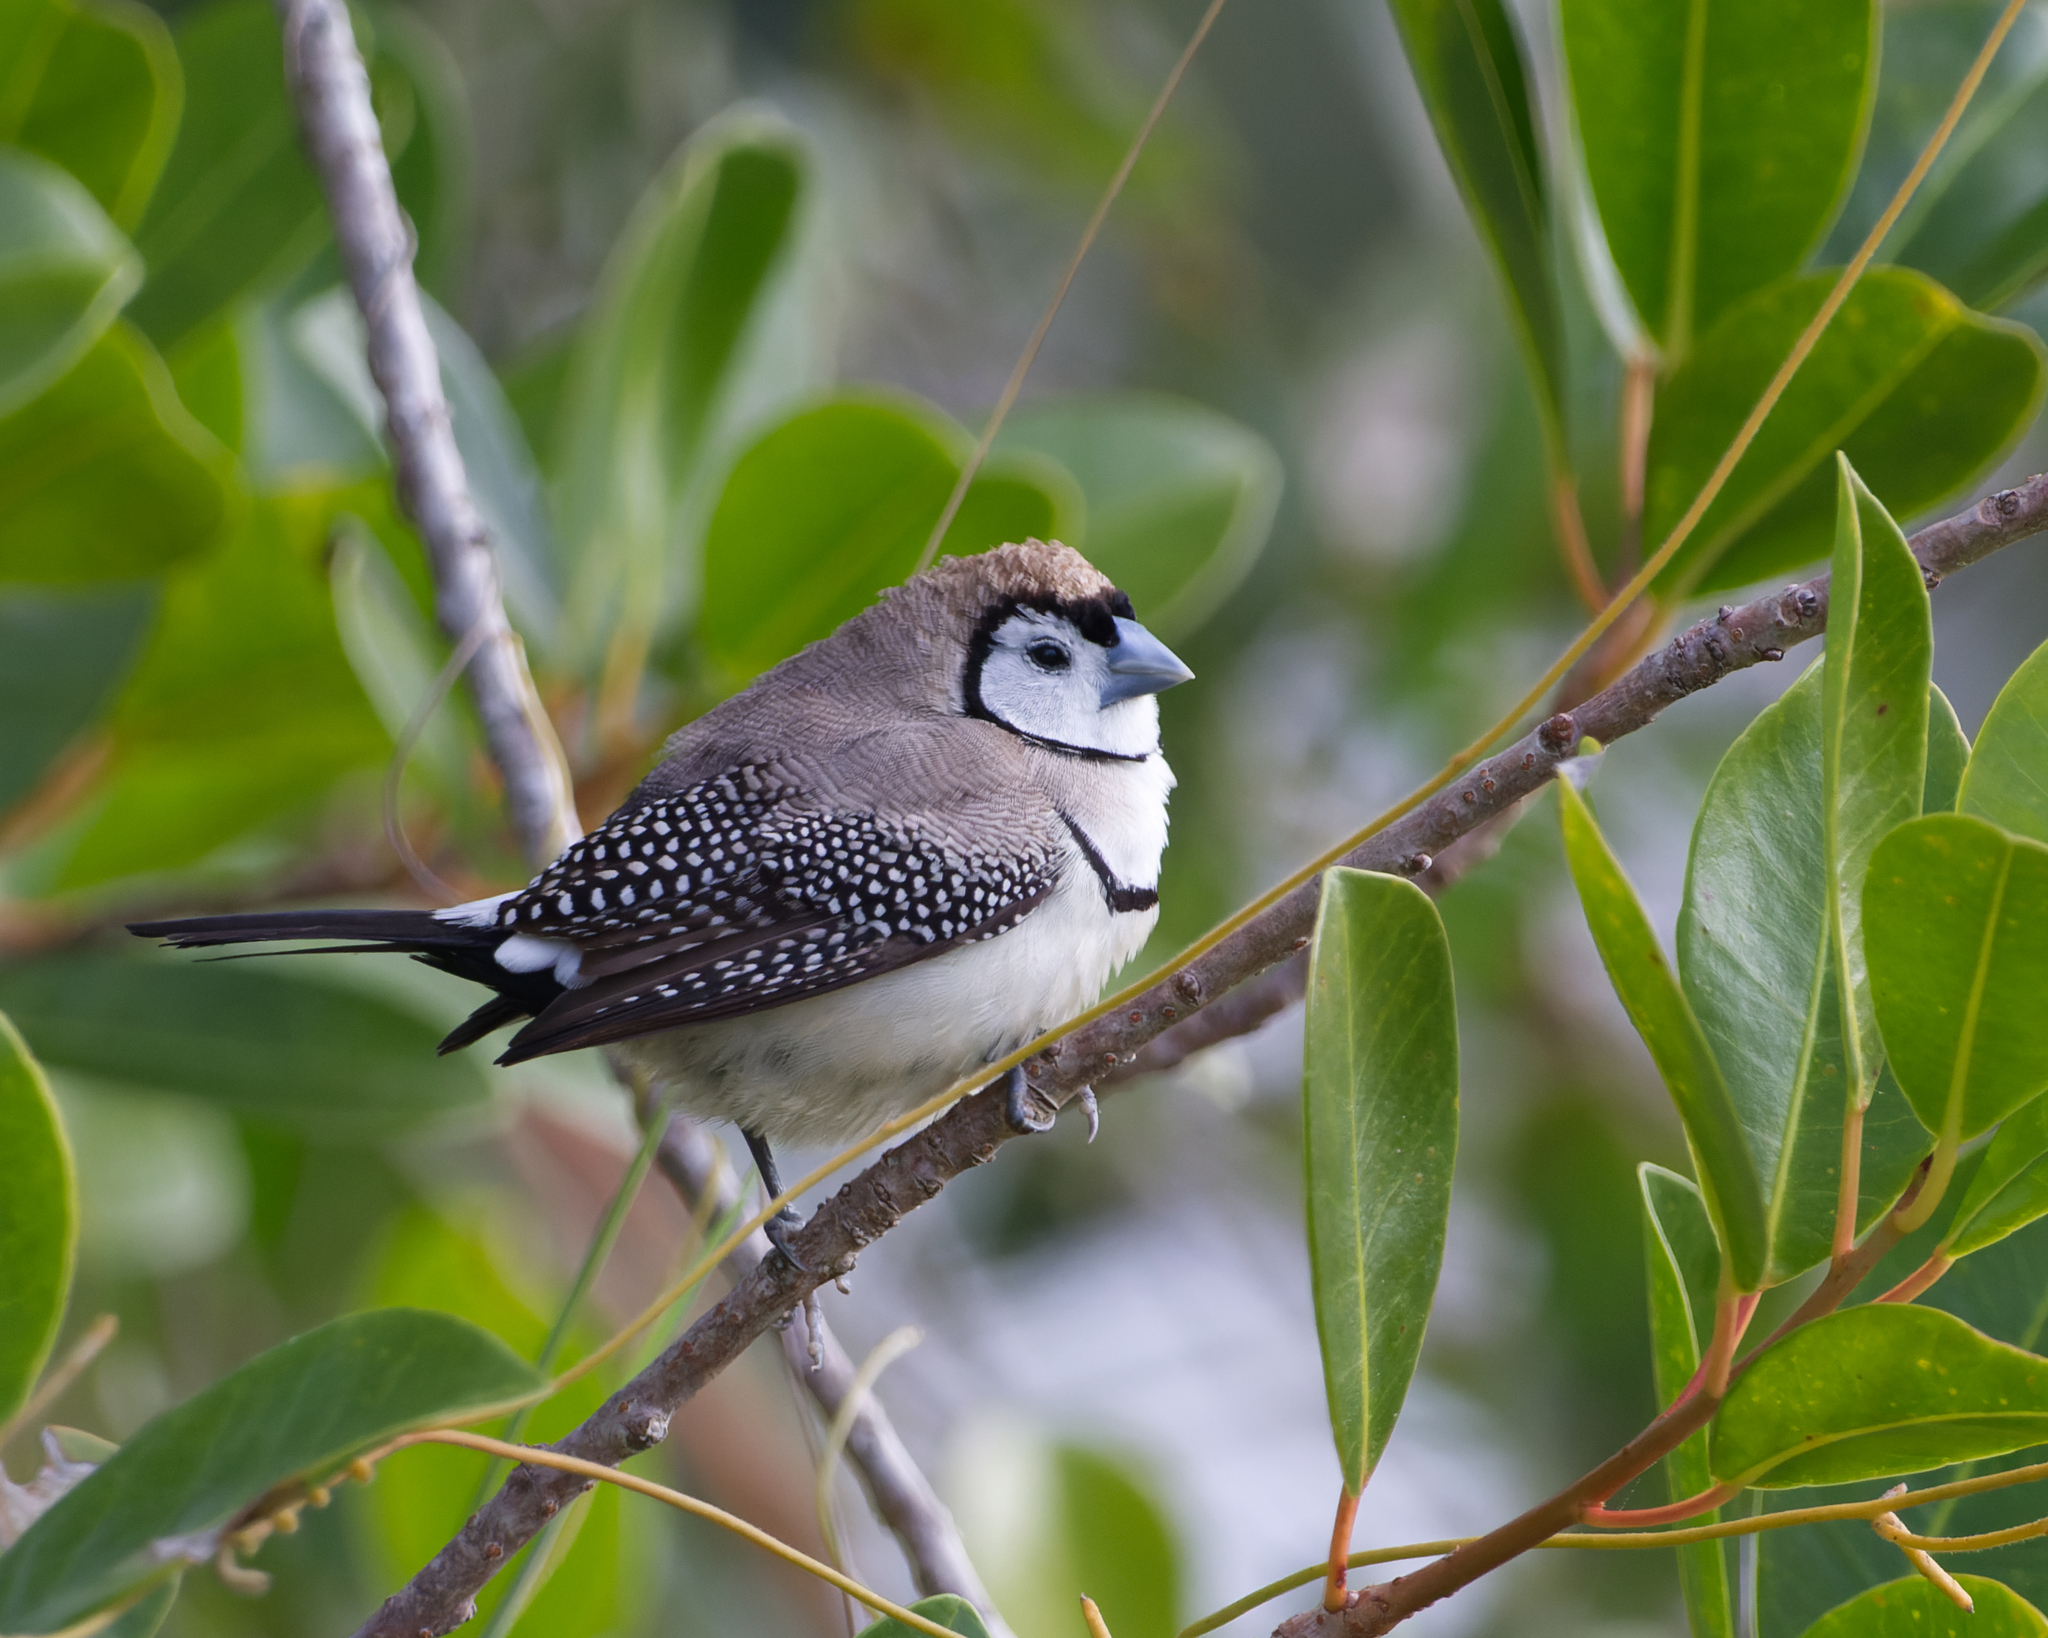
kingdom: Animalia
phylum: Chordata
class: Aves
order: Passeriformes
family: Estrildidae
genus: Taeniopygia
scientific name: Taeniopygia bichenovii
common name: Double-barred finch
